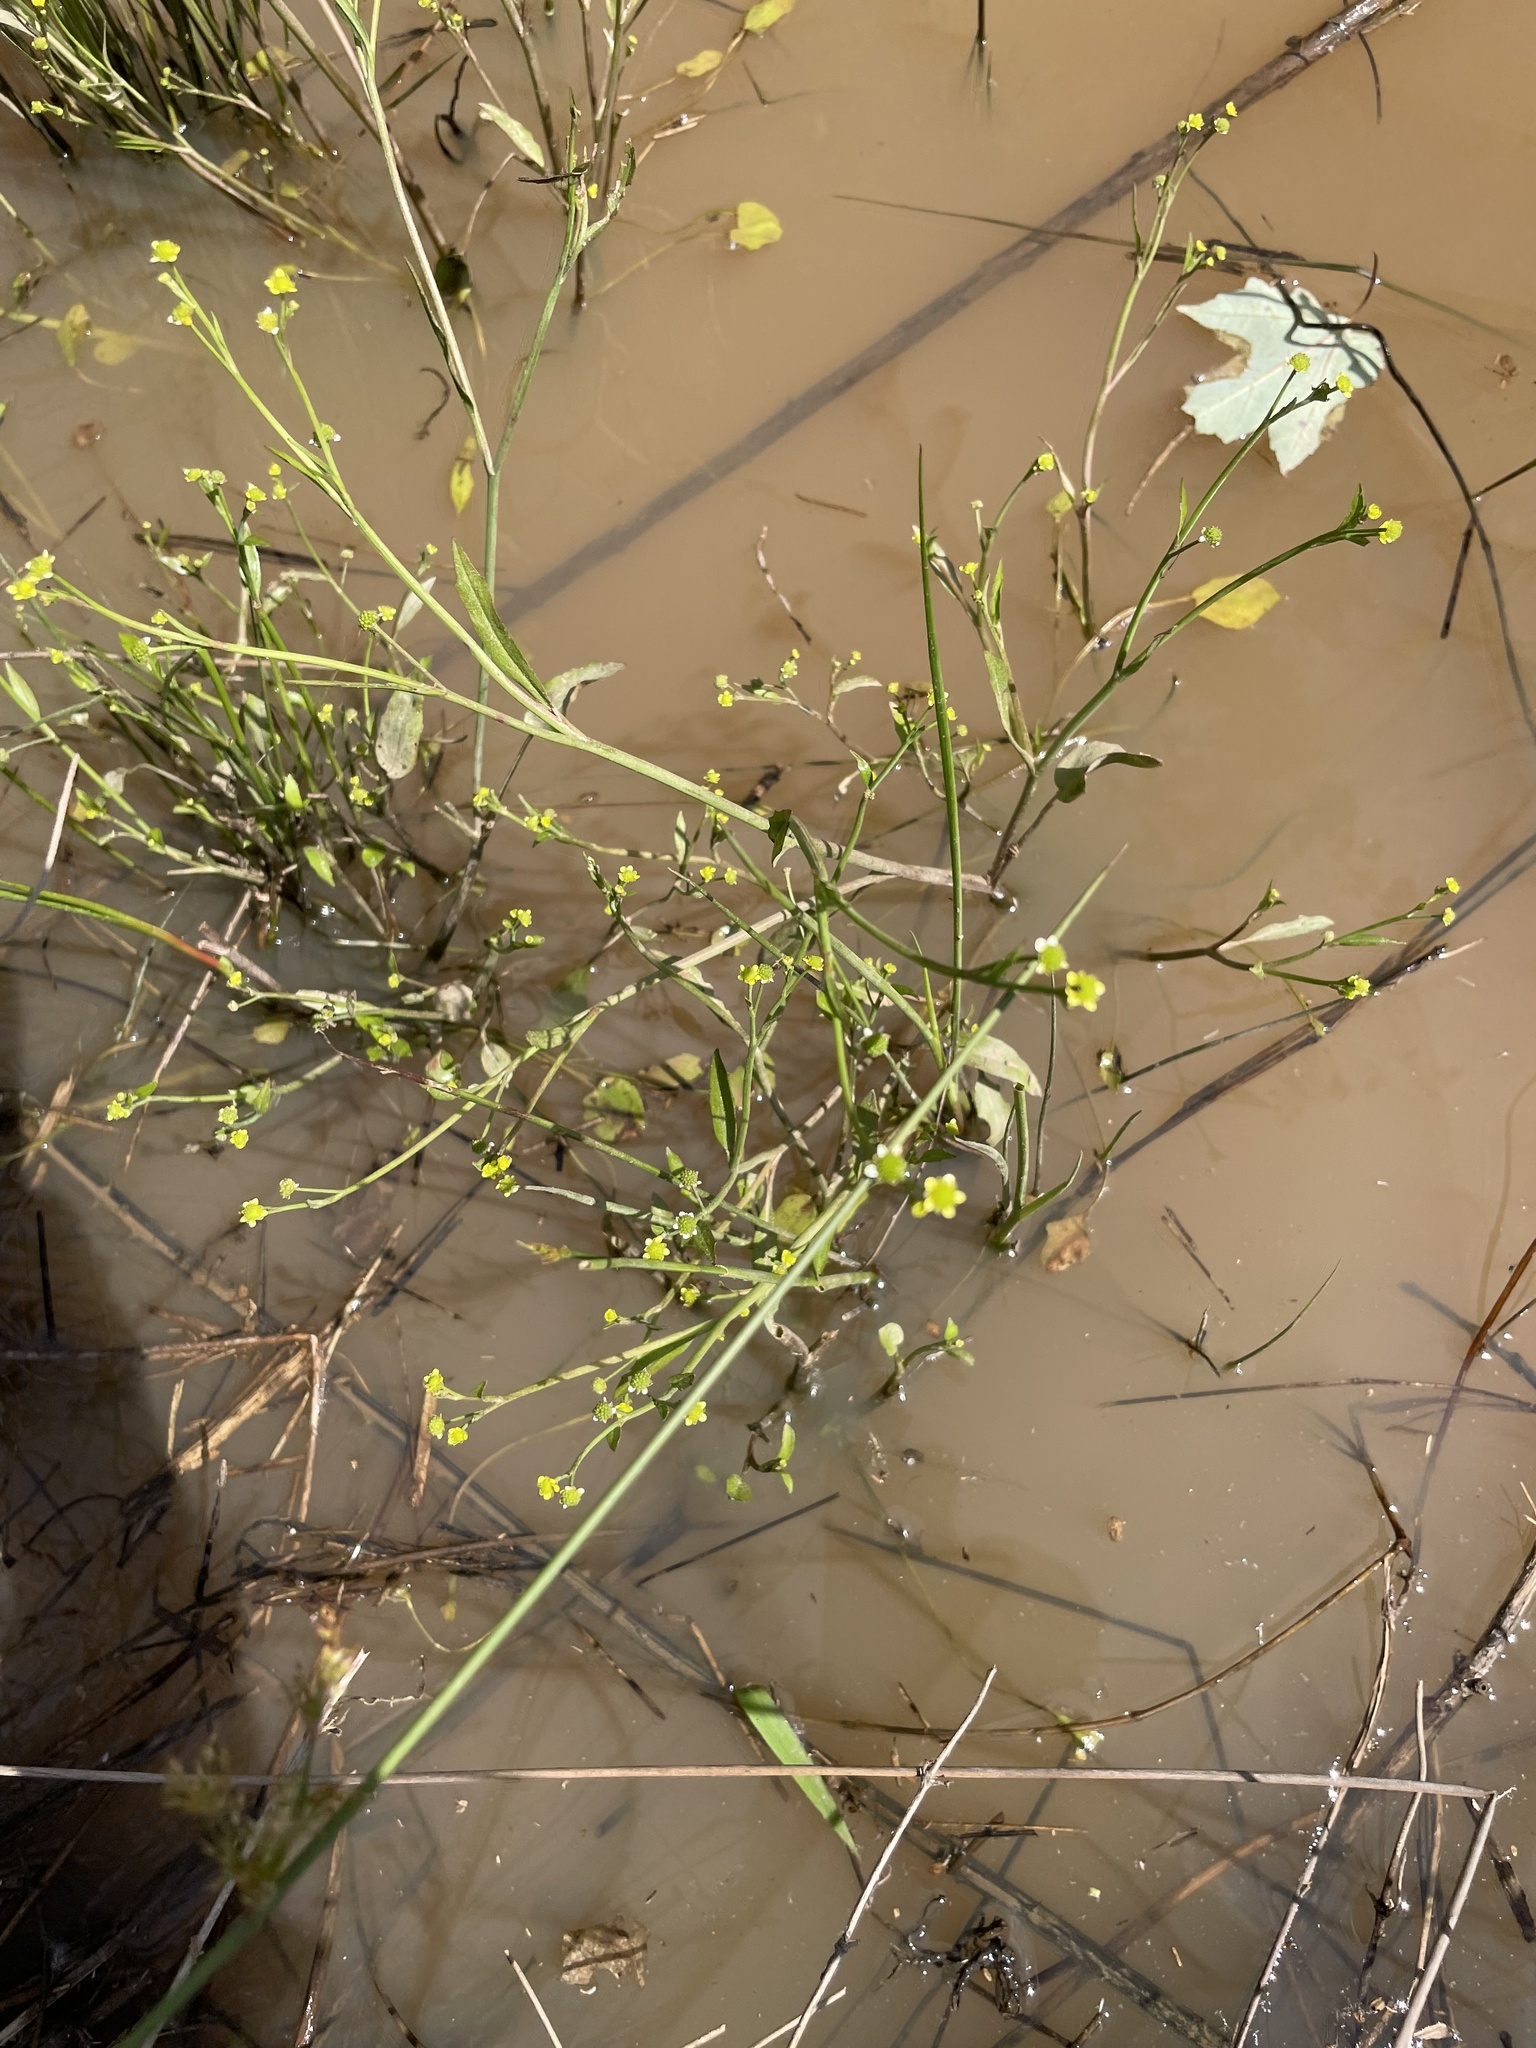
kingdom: Plantae
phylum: Tracheophyta
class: Magnoliopsida
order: Ranunculales
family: Ranunculaceae
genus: Ranunculus
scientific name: Ranunculus pusillus
